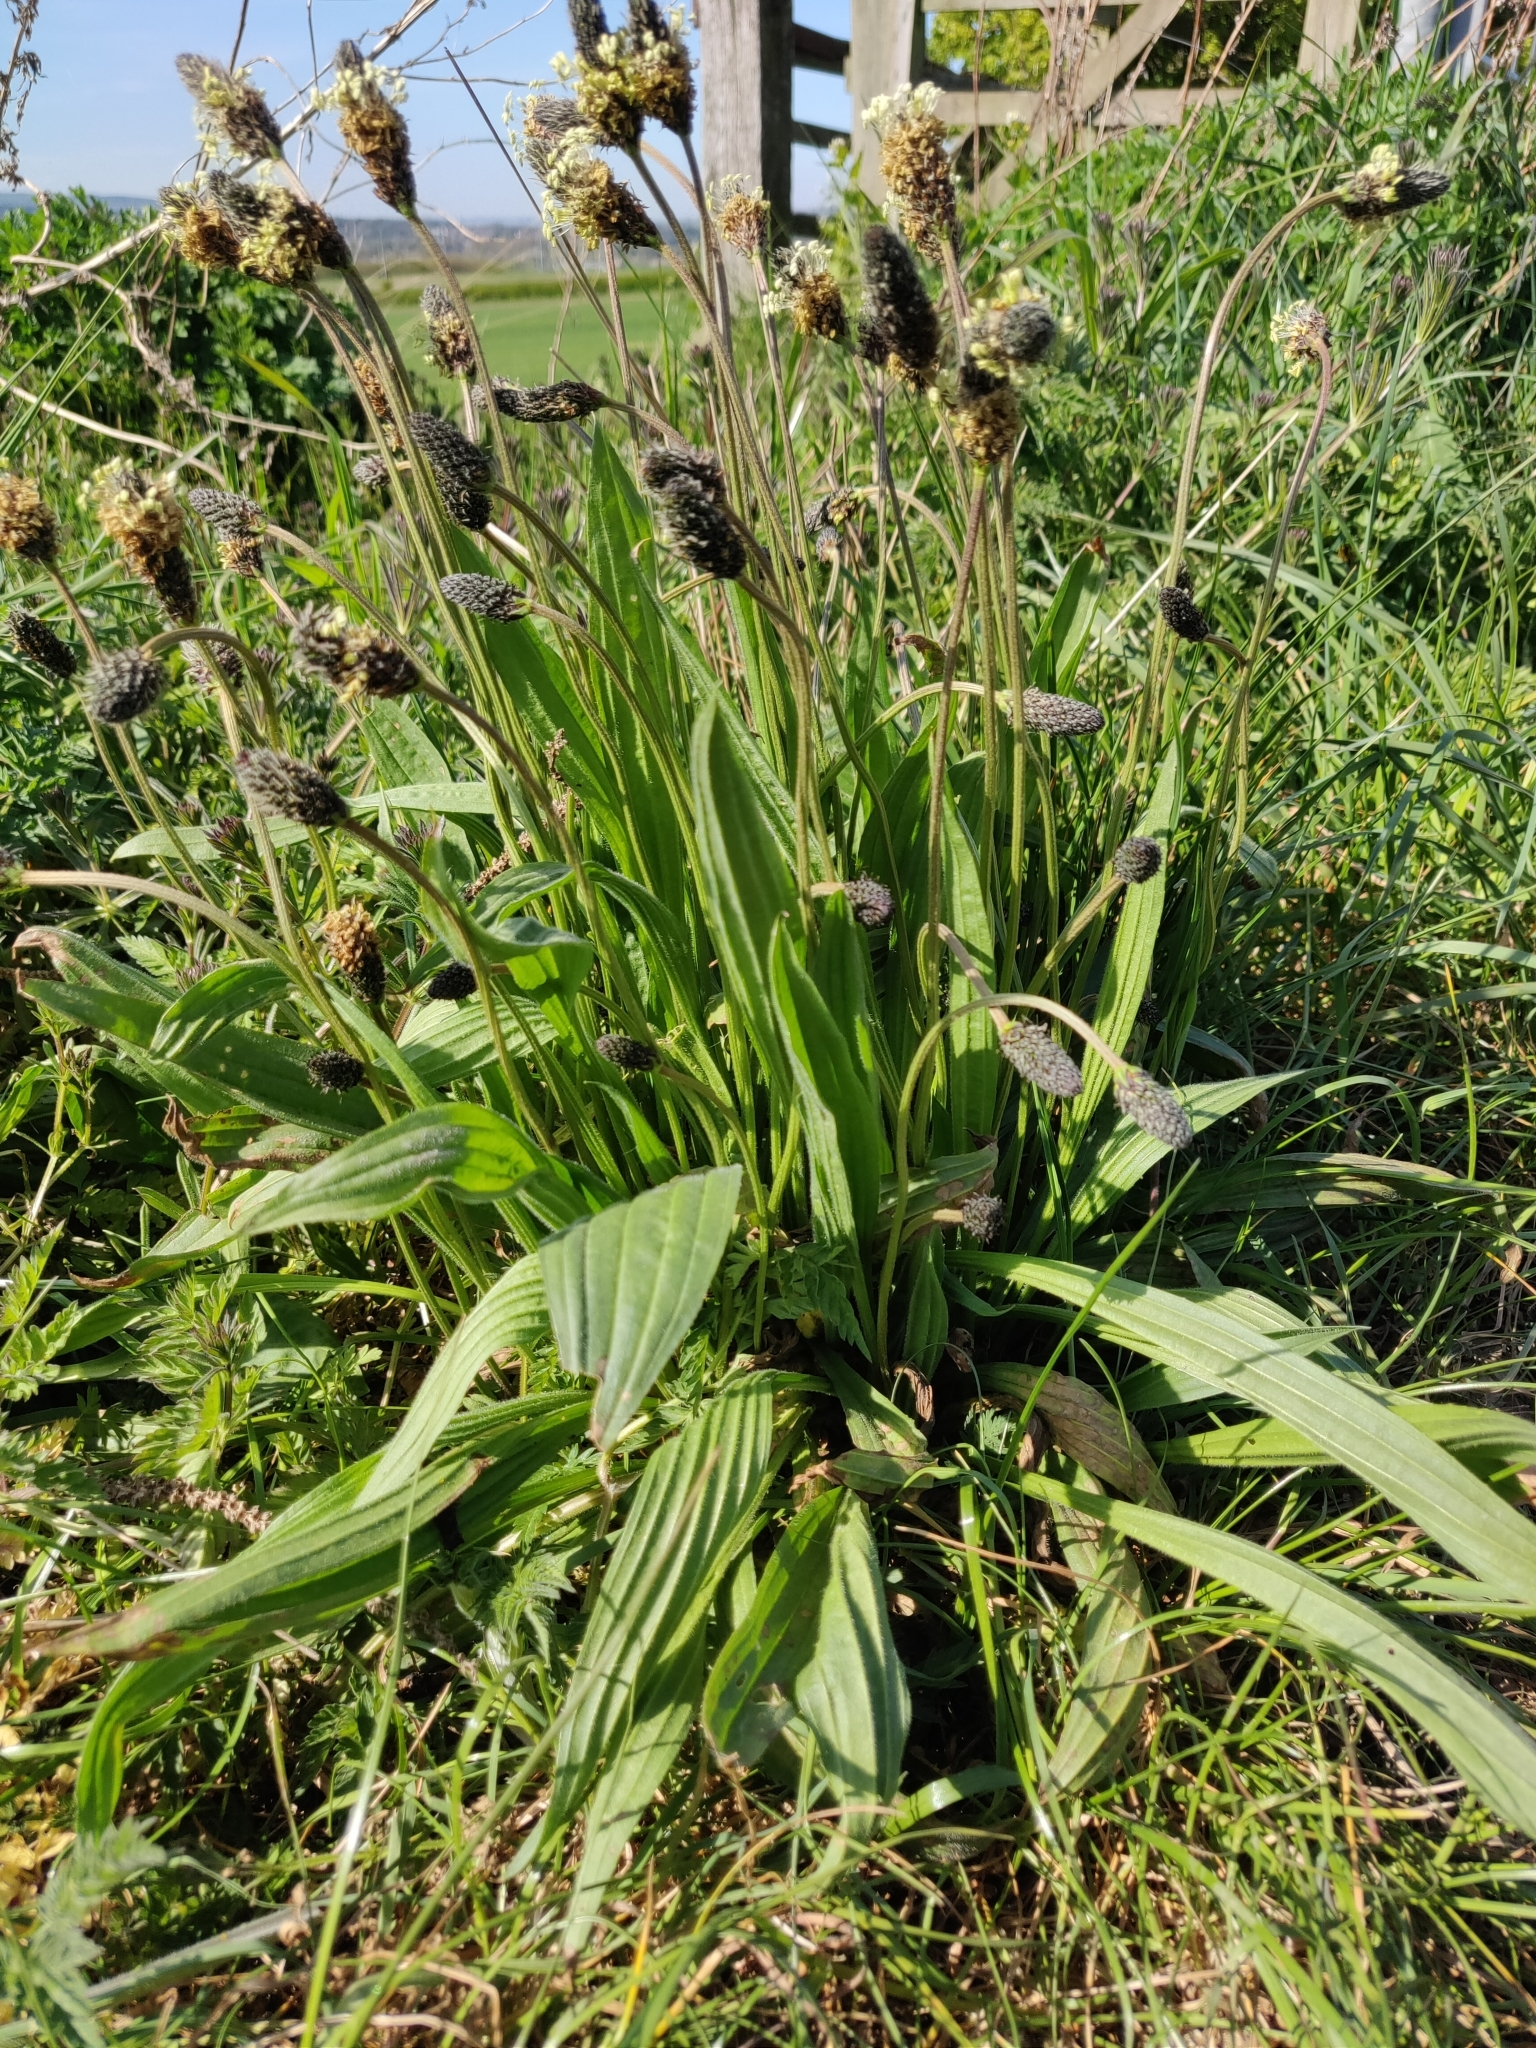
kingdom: Plantae
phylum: Tracheophyta
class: Magnoliopsida
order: Lamiales
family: Plantaginaceae
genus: Plantago
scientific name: Plantago lanceolata
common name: Ribwort plantain
